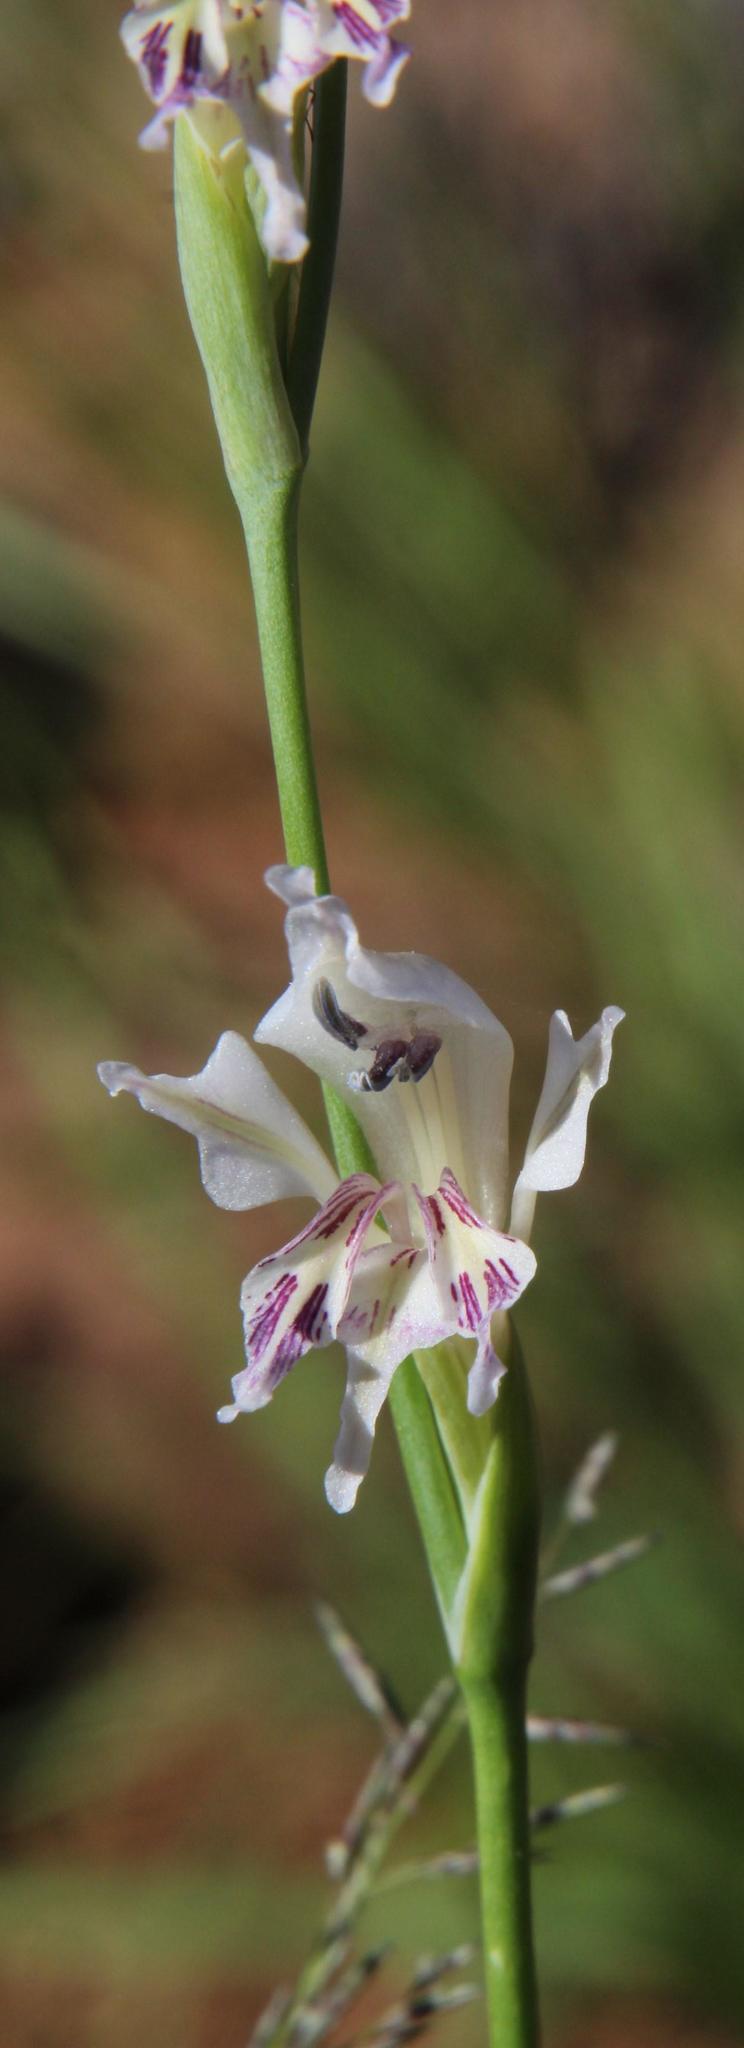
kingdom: Plantae
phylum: Tracheophyta
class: Liliopsida
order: Asparagales
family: Iridaceae
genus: Gladiolus
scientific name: Gladiolus permeabilis
